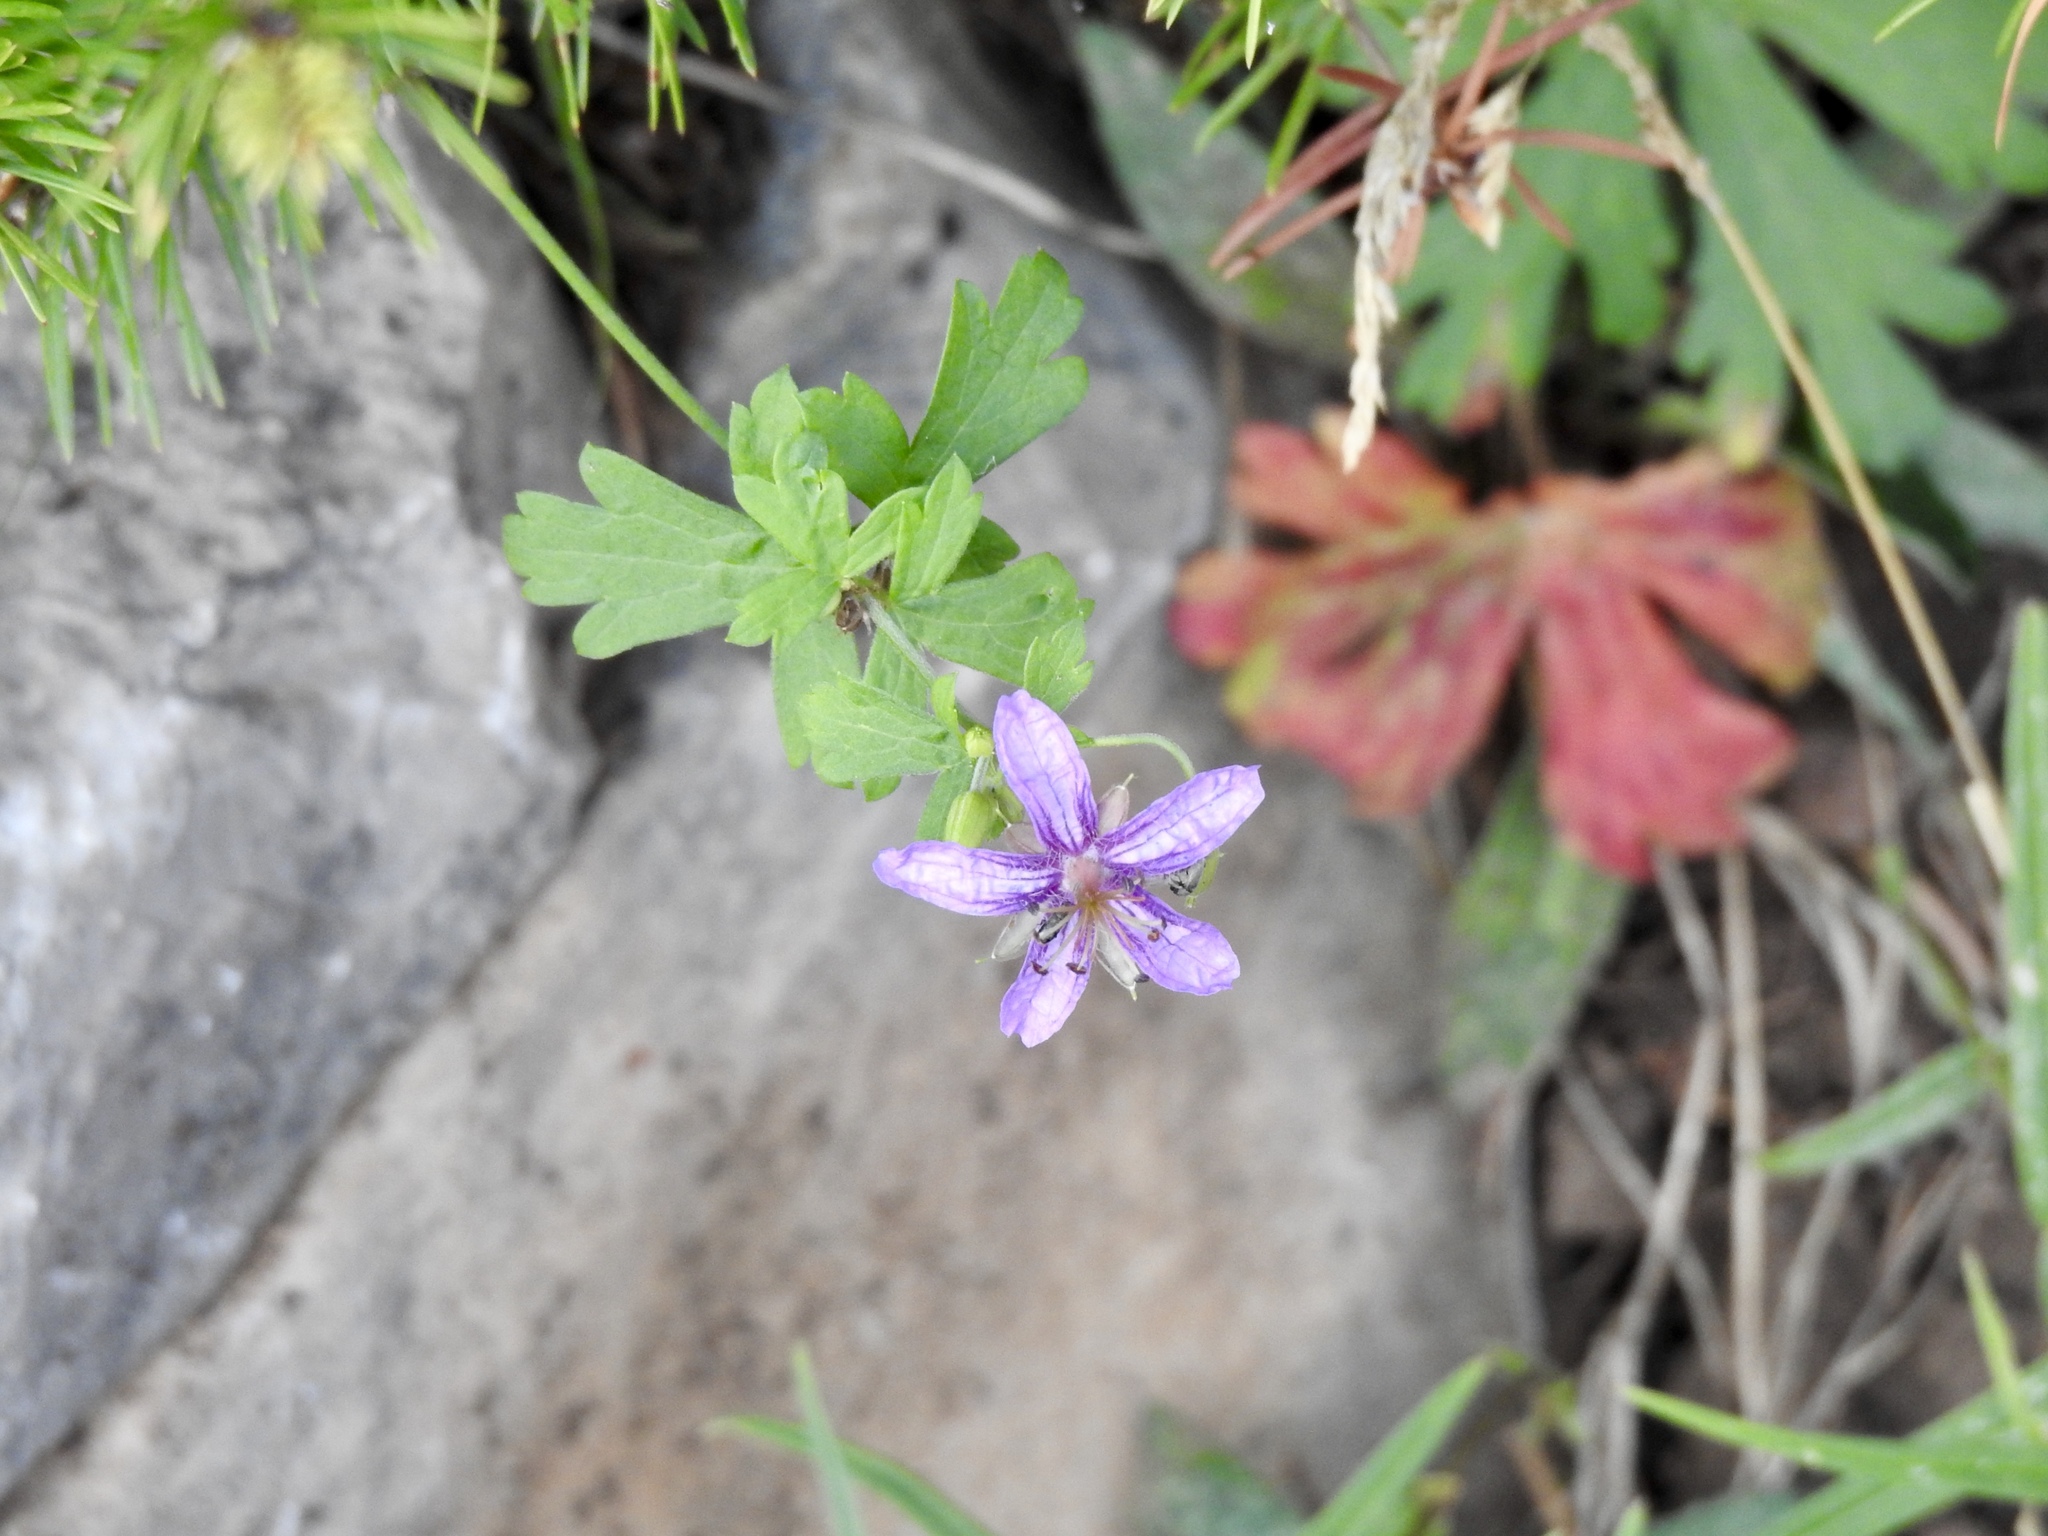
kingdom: Plantae
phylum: Tracheophyta
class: Magnoliopsida
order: Geraniales
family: Geraniaceae
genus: Geranium
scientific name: Geranium caespitosum
